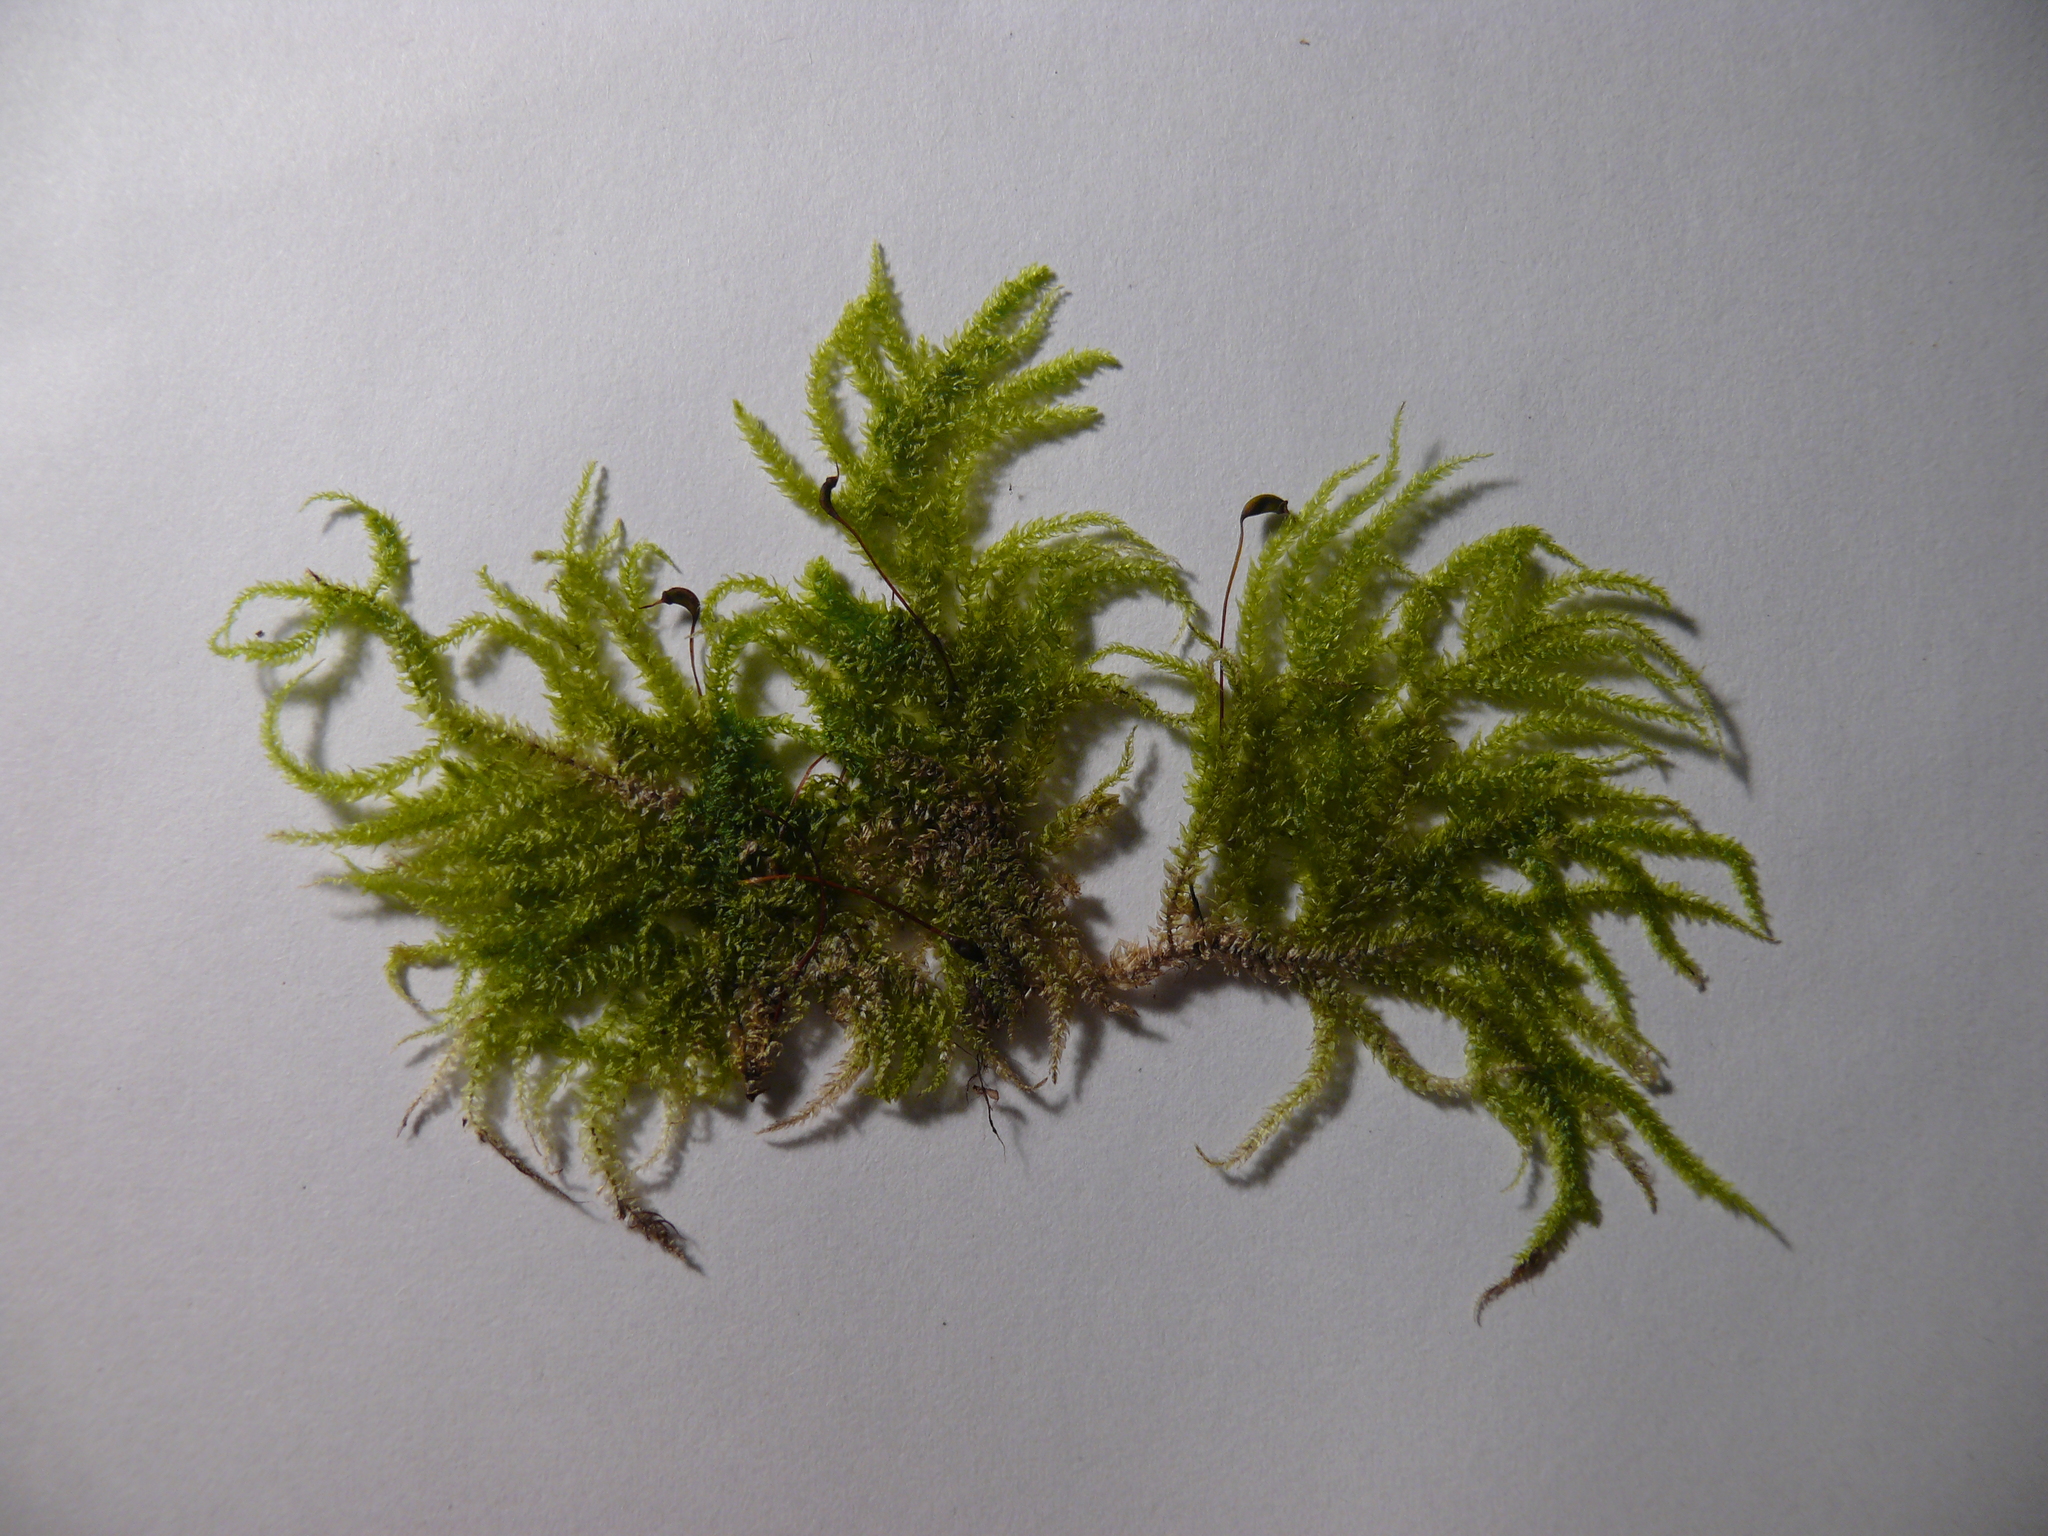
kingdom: Plantae
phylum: Bryophyta
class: Bryopsida
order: Hypnales
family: Brachytheciaceae
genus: Eurhynchium
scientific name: Eurhynchium angustirete
